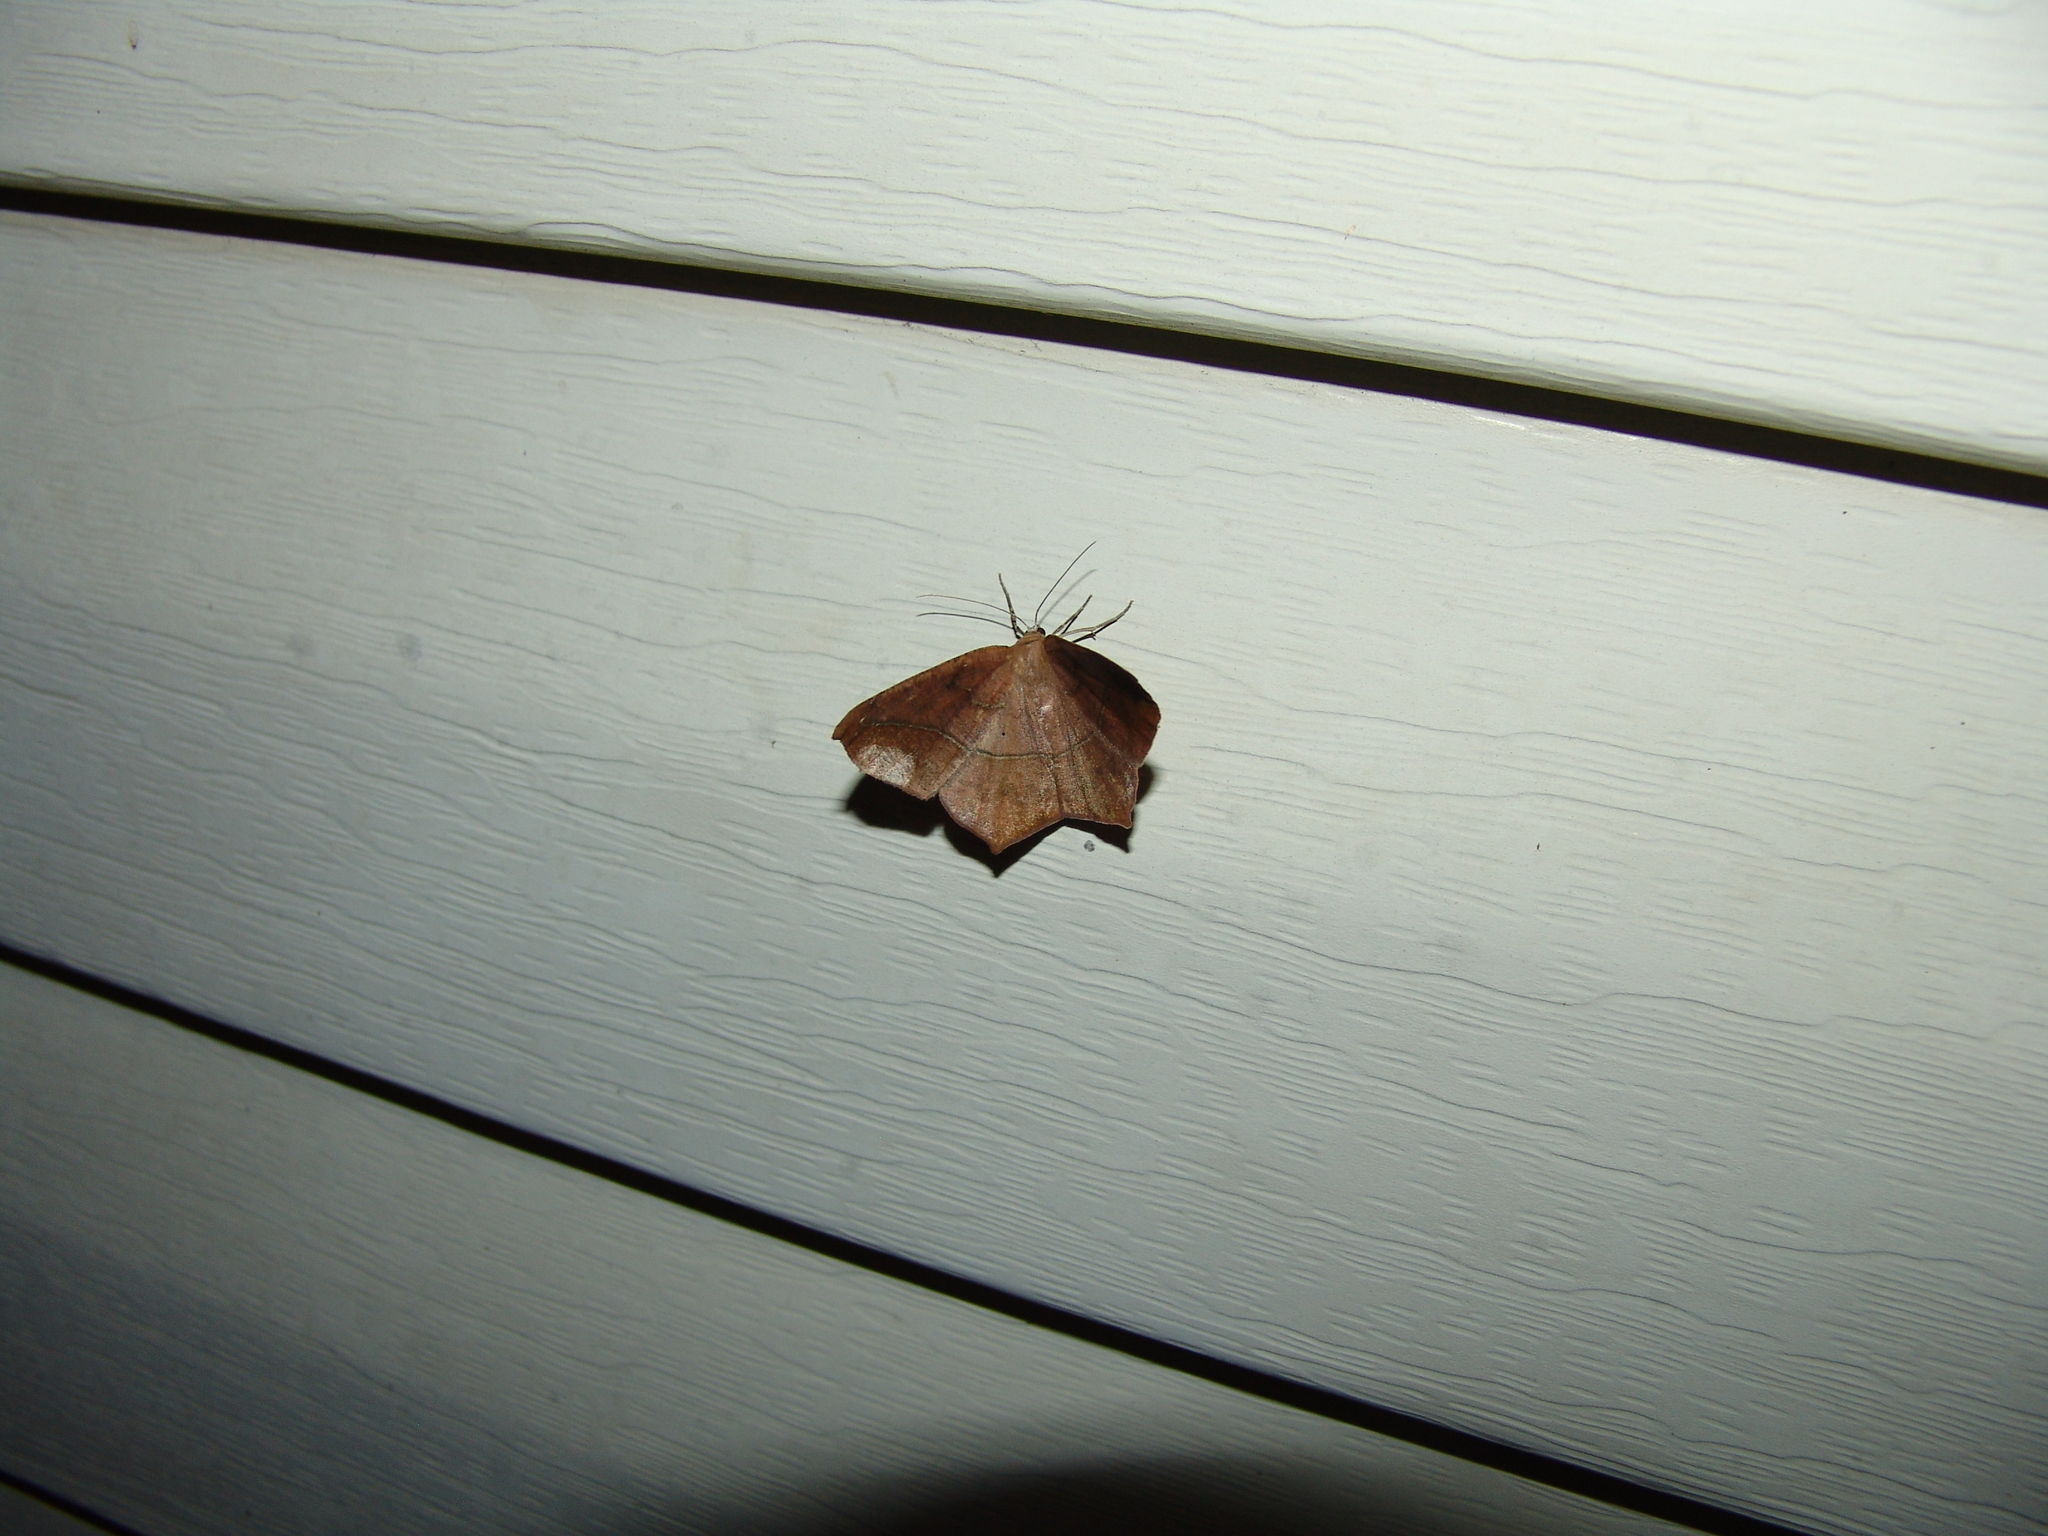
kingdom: Animalia
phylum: Arthropoda
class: Insecta
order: Lepidoptera
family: Geometridae
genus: Prochoerodes
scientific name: Prochoerodes lineola
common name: Large maple spanworm
